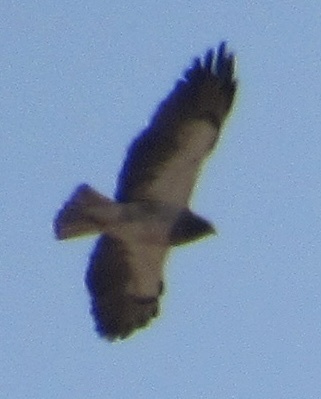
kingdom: Animalia
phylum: Chordata
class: Aves
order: Accipitriformes
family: Accipitridae
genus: Buteo
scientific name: Buteo swainsoni
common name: Swainson's hawk
